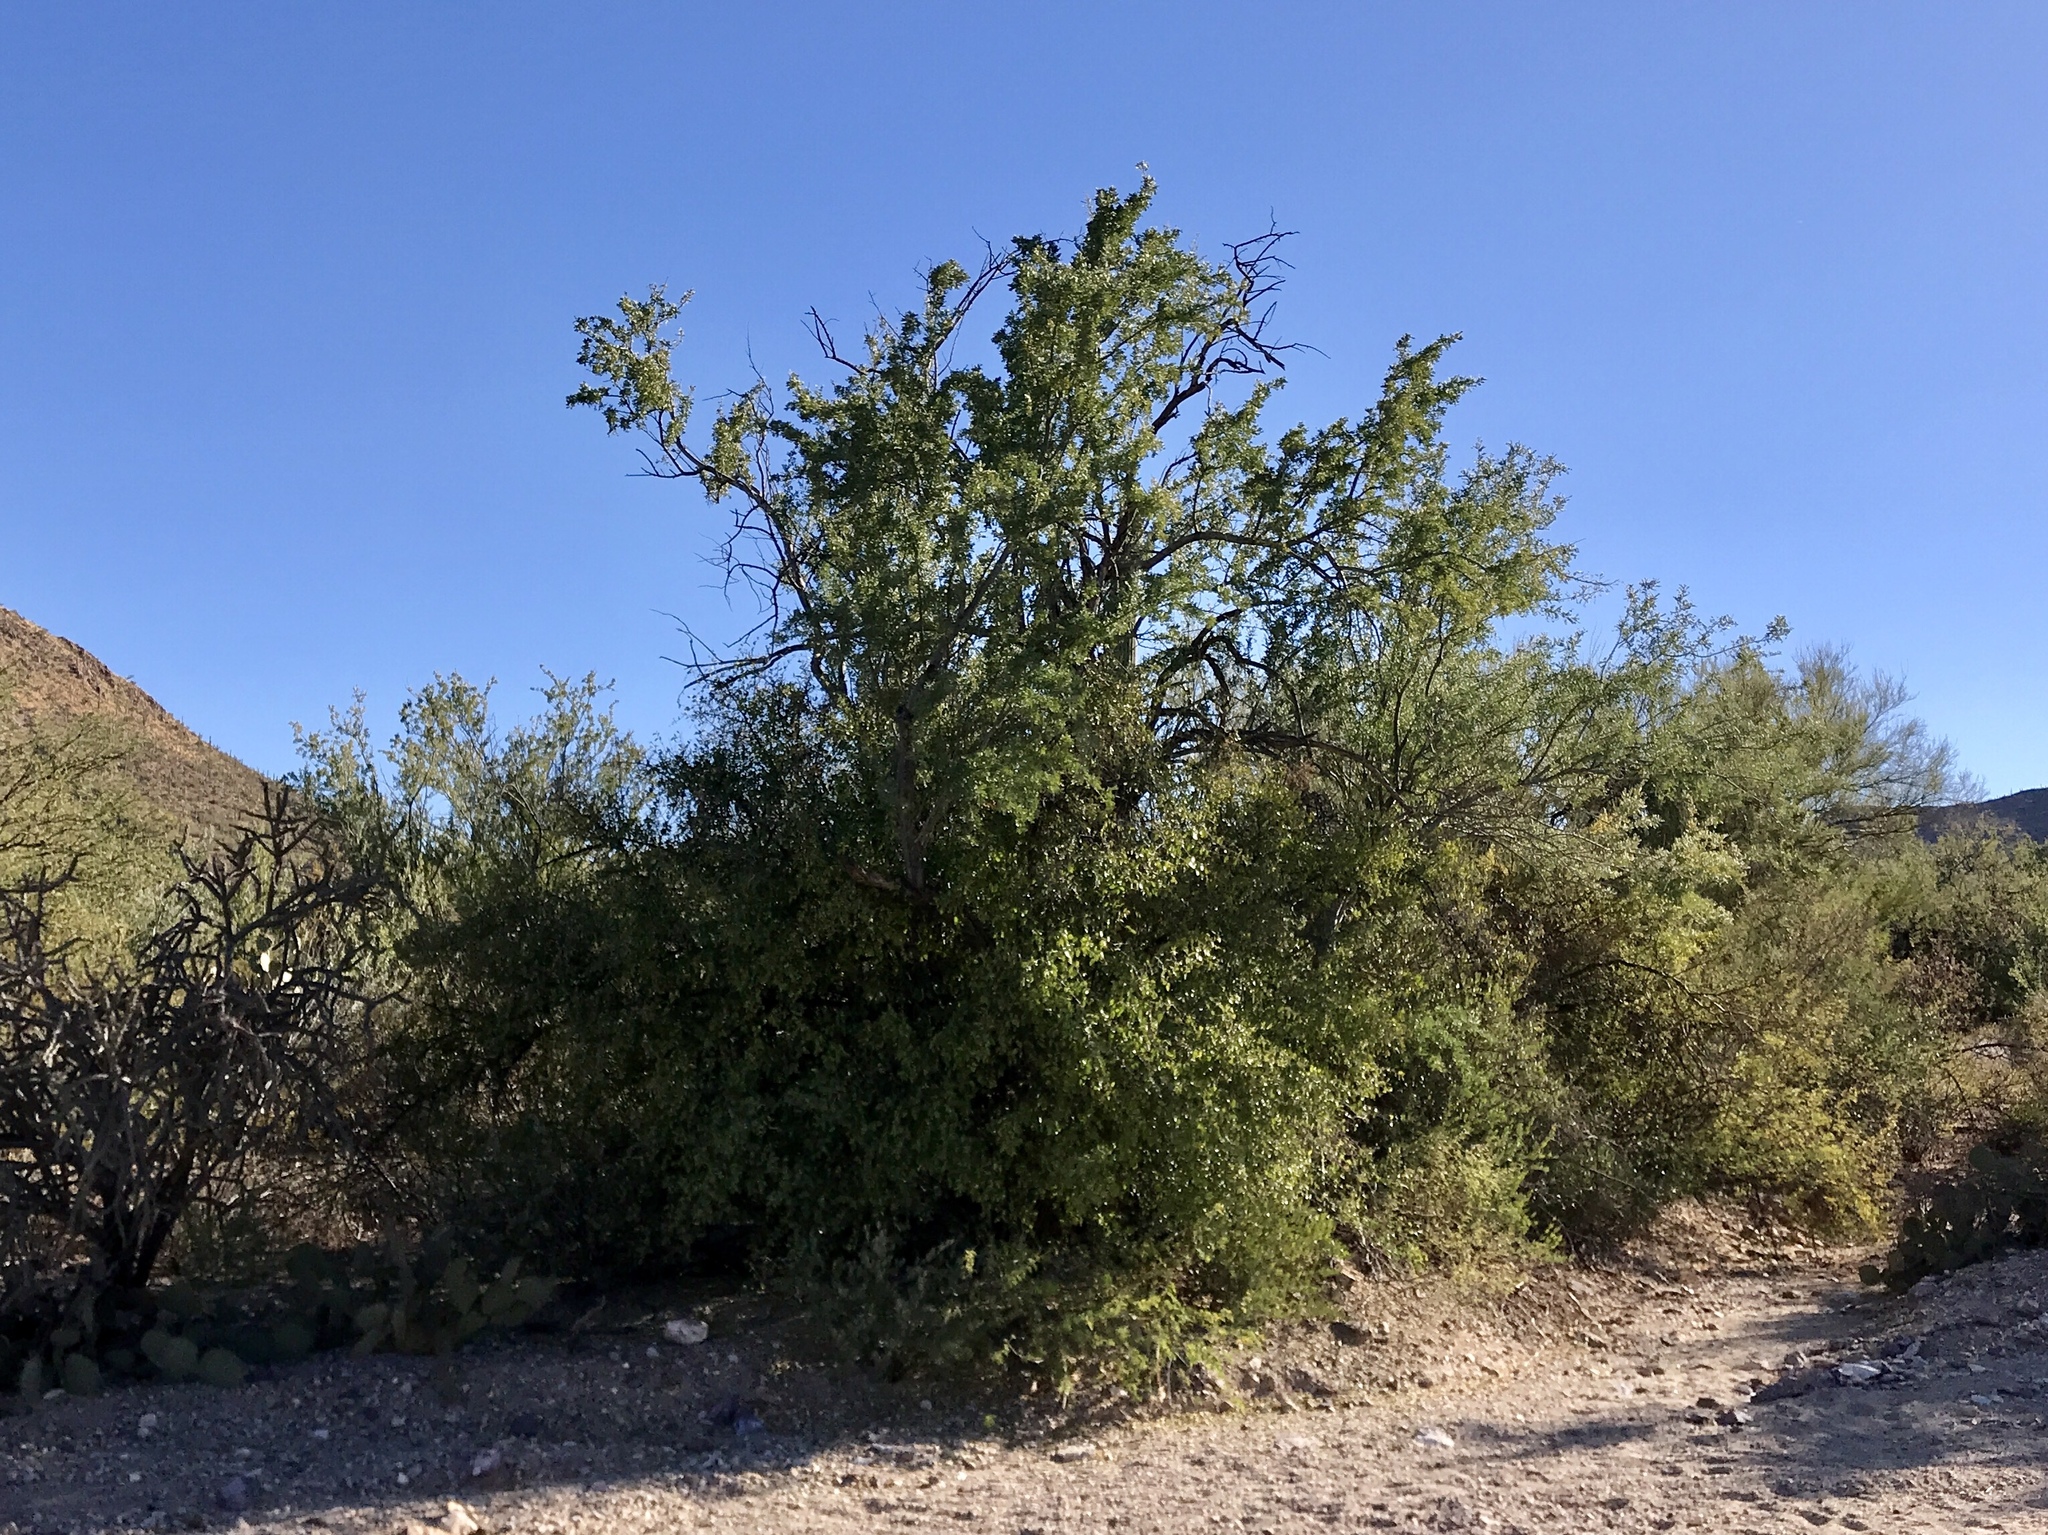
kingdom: Plantae
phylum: Tracheophyta
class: Magnoliopsida
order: Fabales
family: Fabaceae
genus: Olneya
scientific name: Olneya tesota
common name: Desert ironwood
